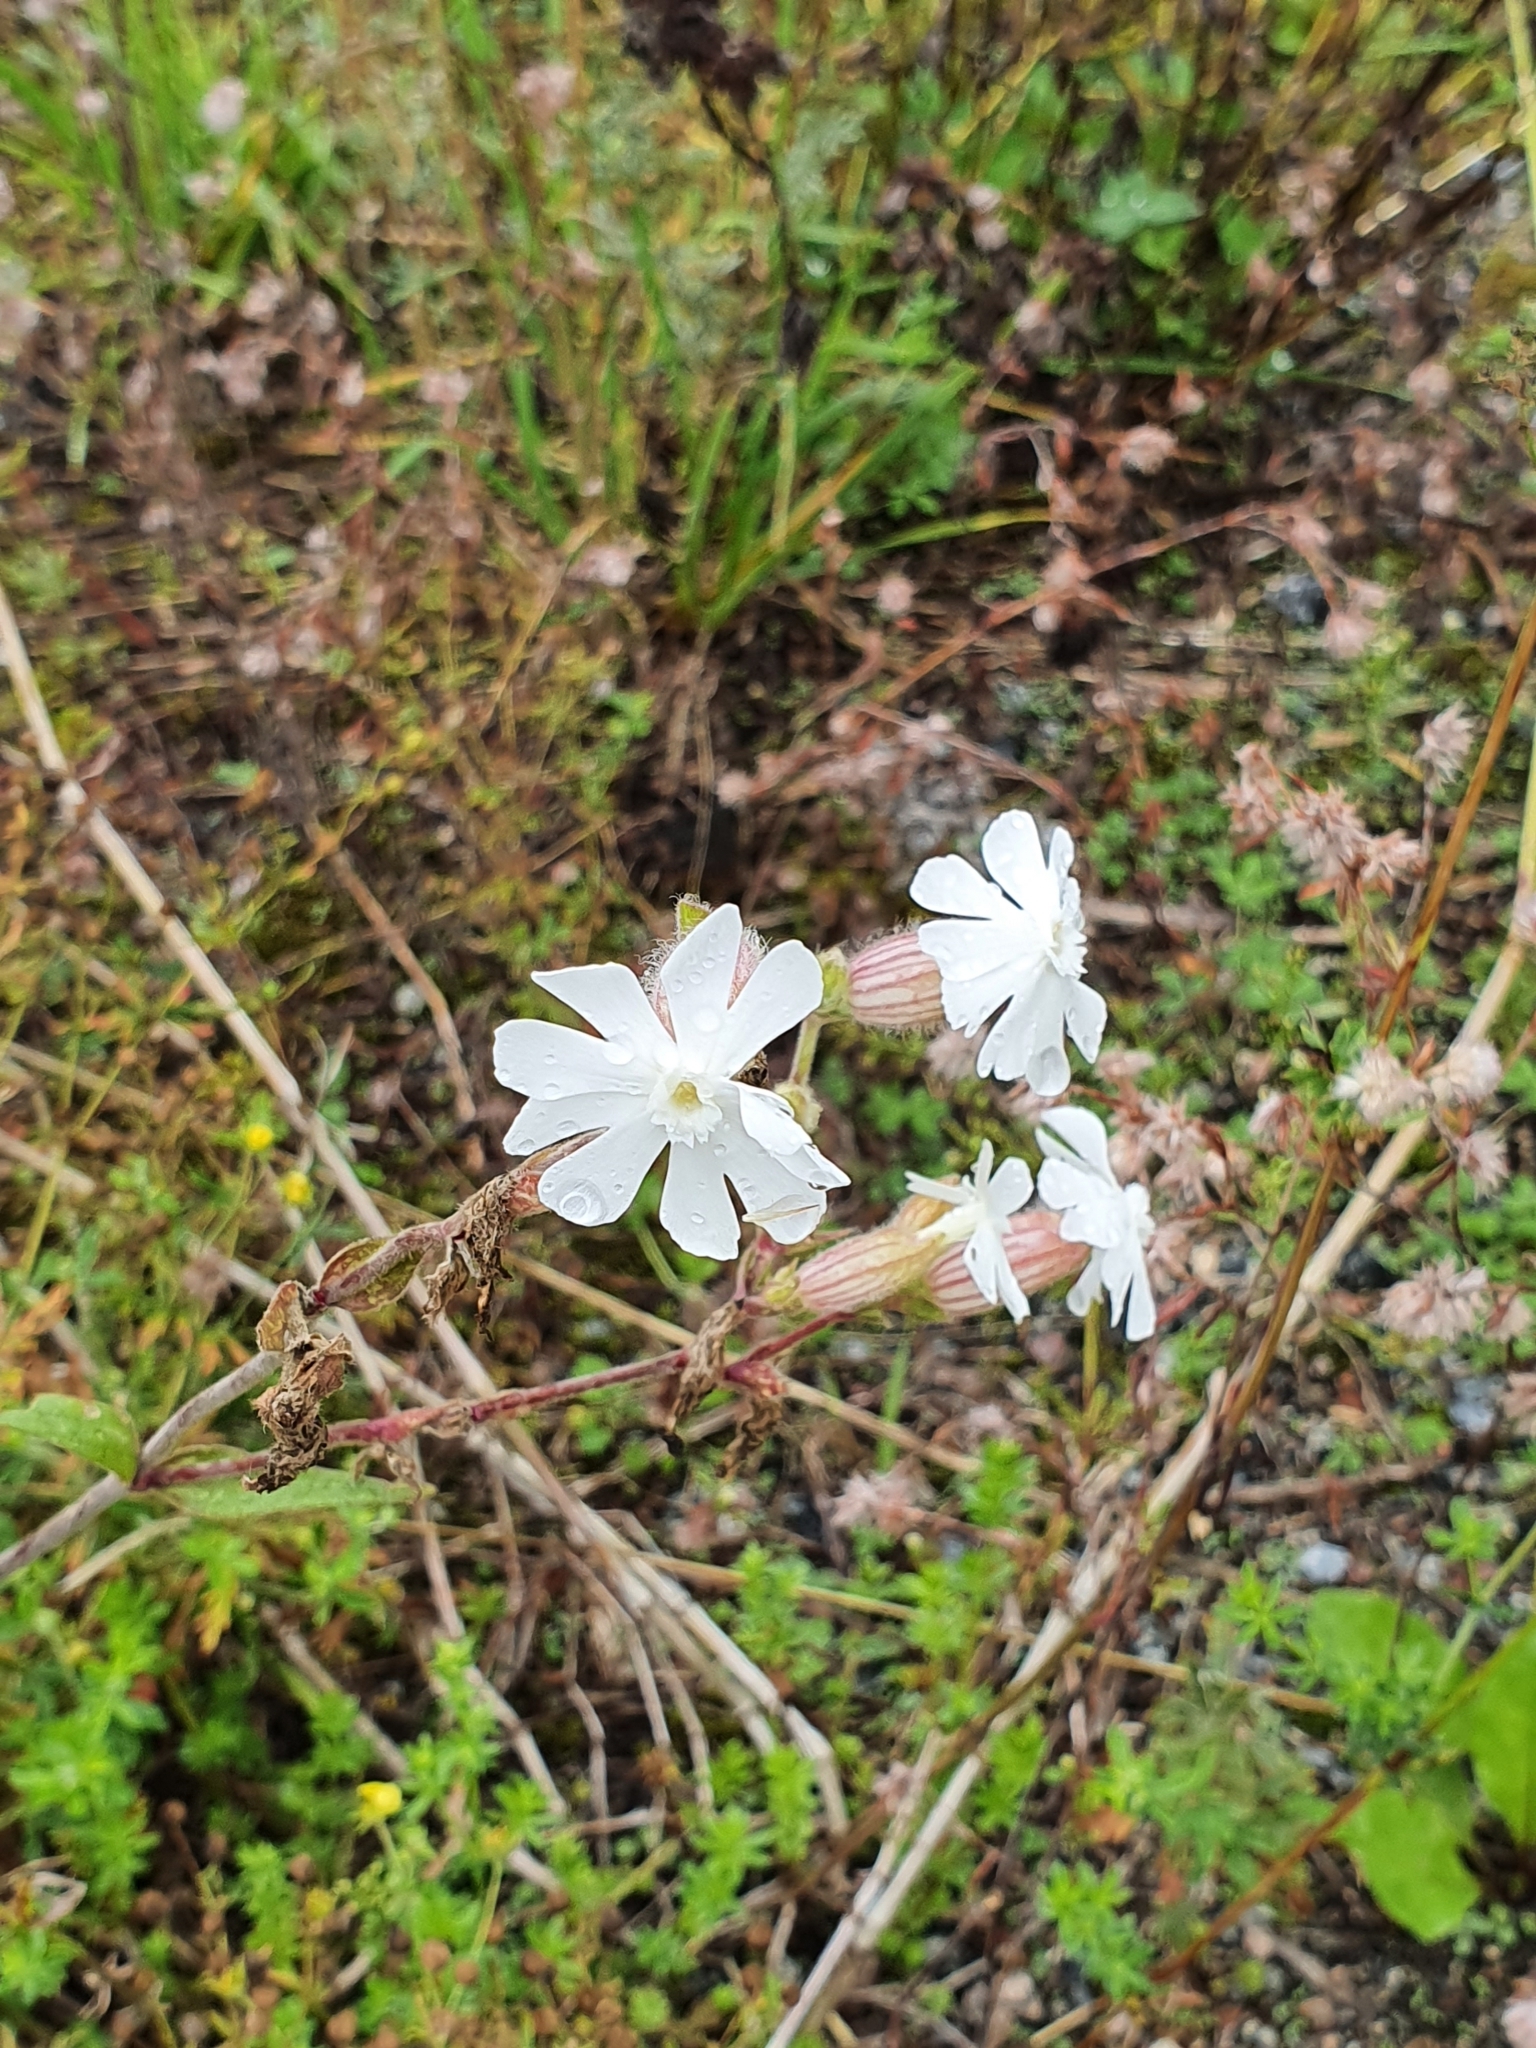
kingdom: Plantae
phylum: Tracheophyta
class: Magnoliopsida
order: Caryophyllales
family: Caryophyllaceae
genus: Silene
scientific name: Silene latifolia
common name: White campion
